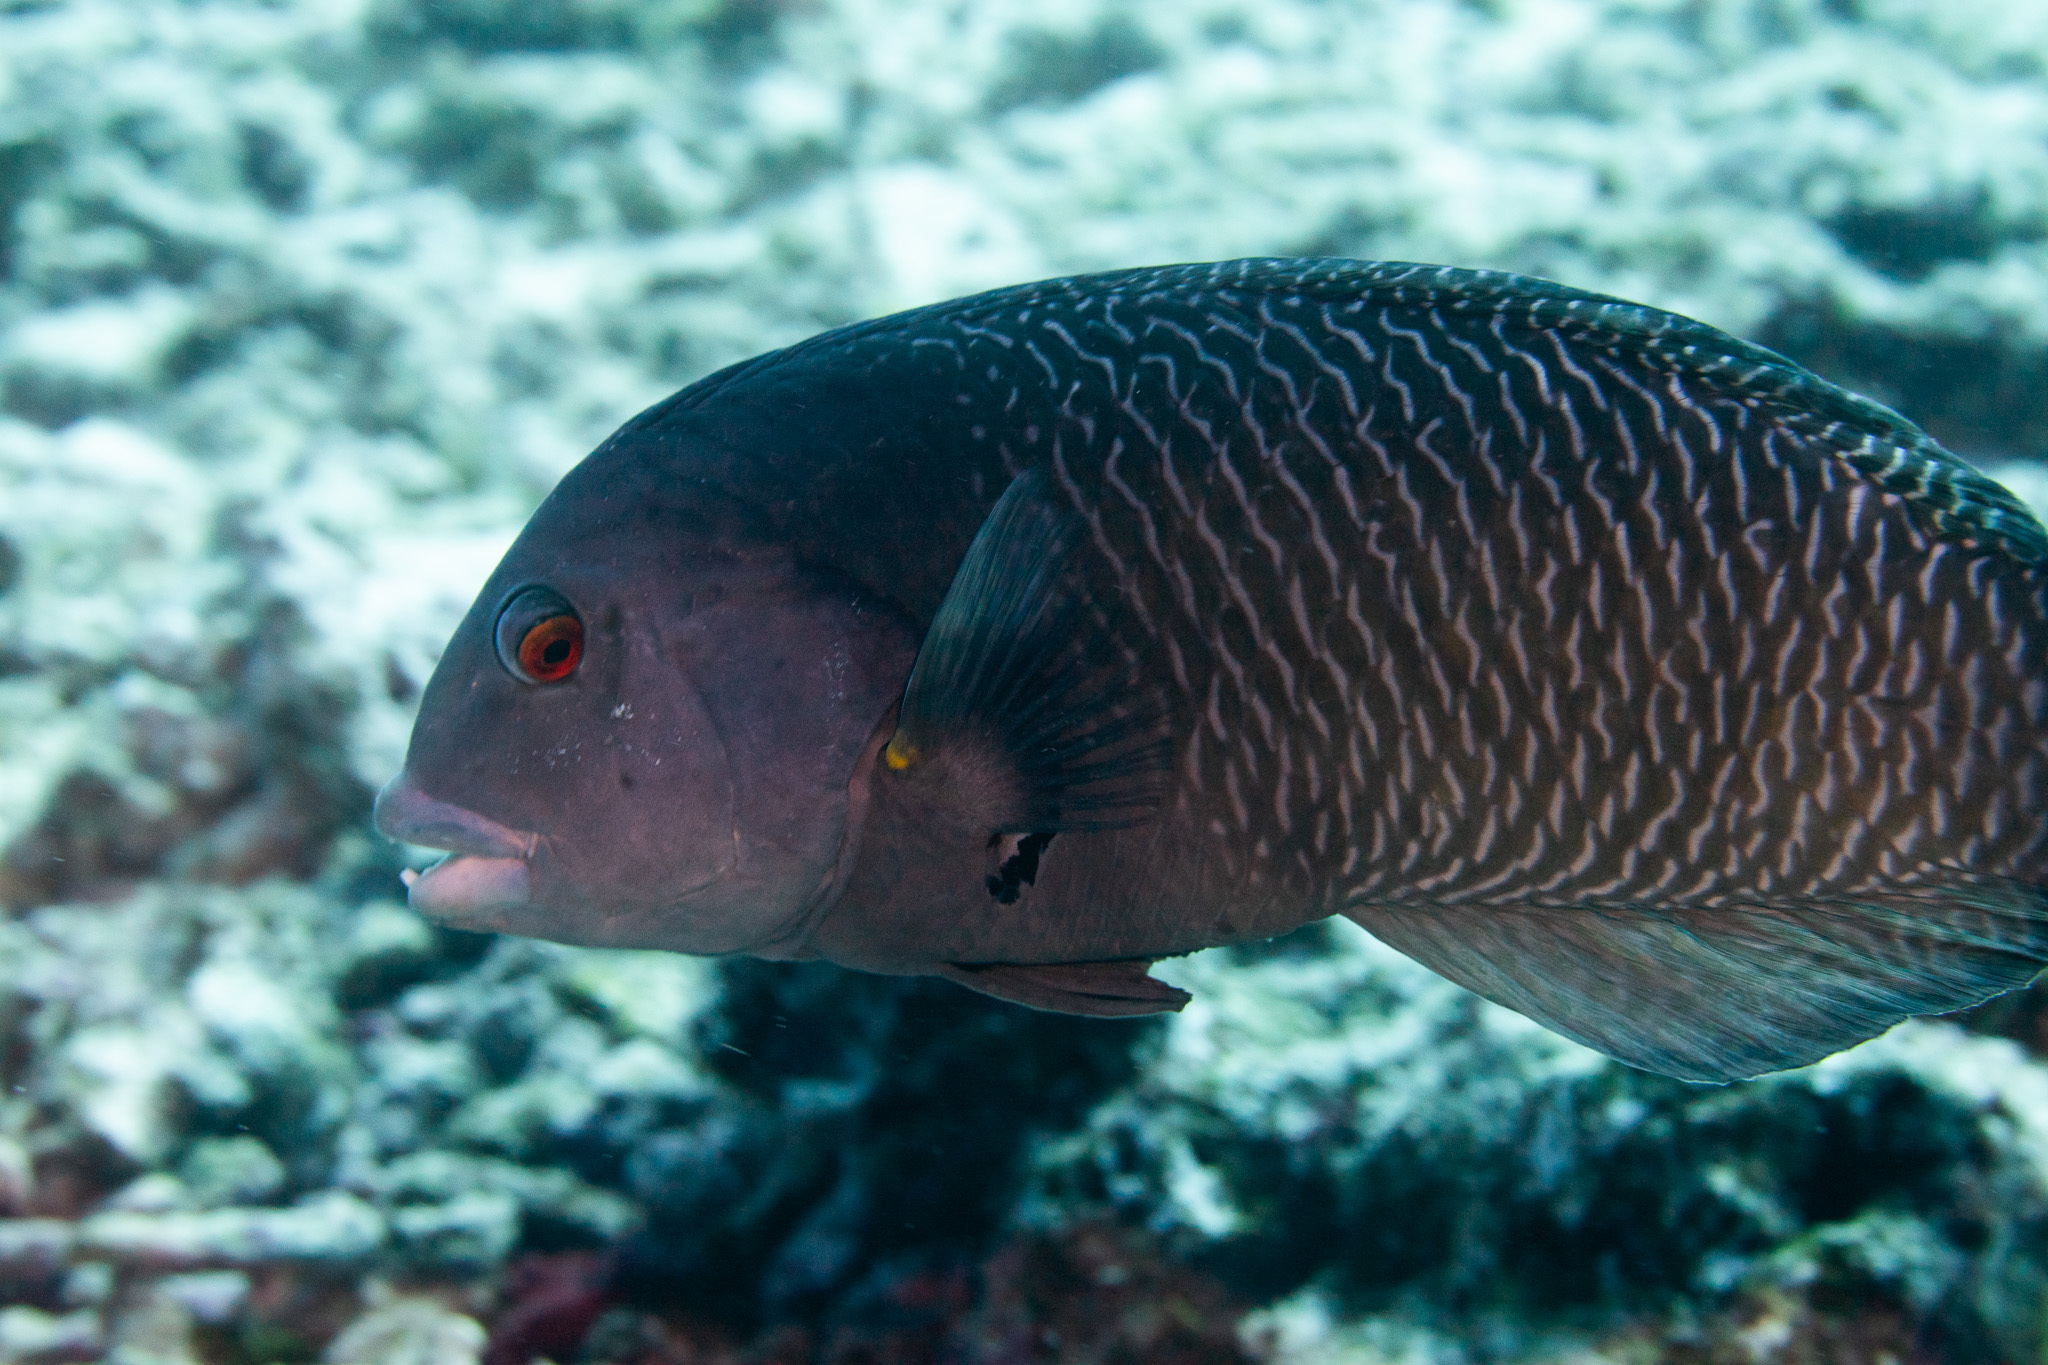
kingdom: Animalia
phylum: Chordata
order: Perciformes
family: Labridae
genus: Novaculichthys
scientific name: Novaculichthys taeniourus
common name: Rockmover wrasse
